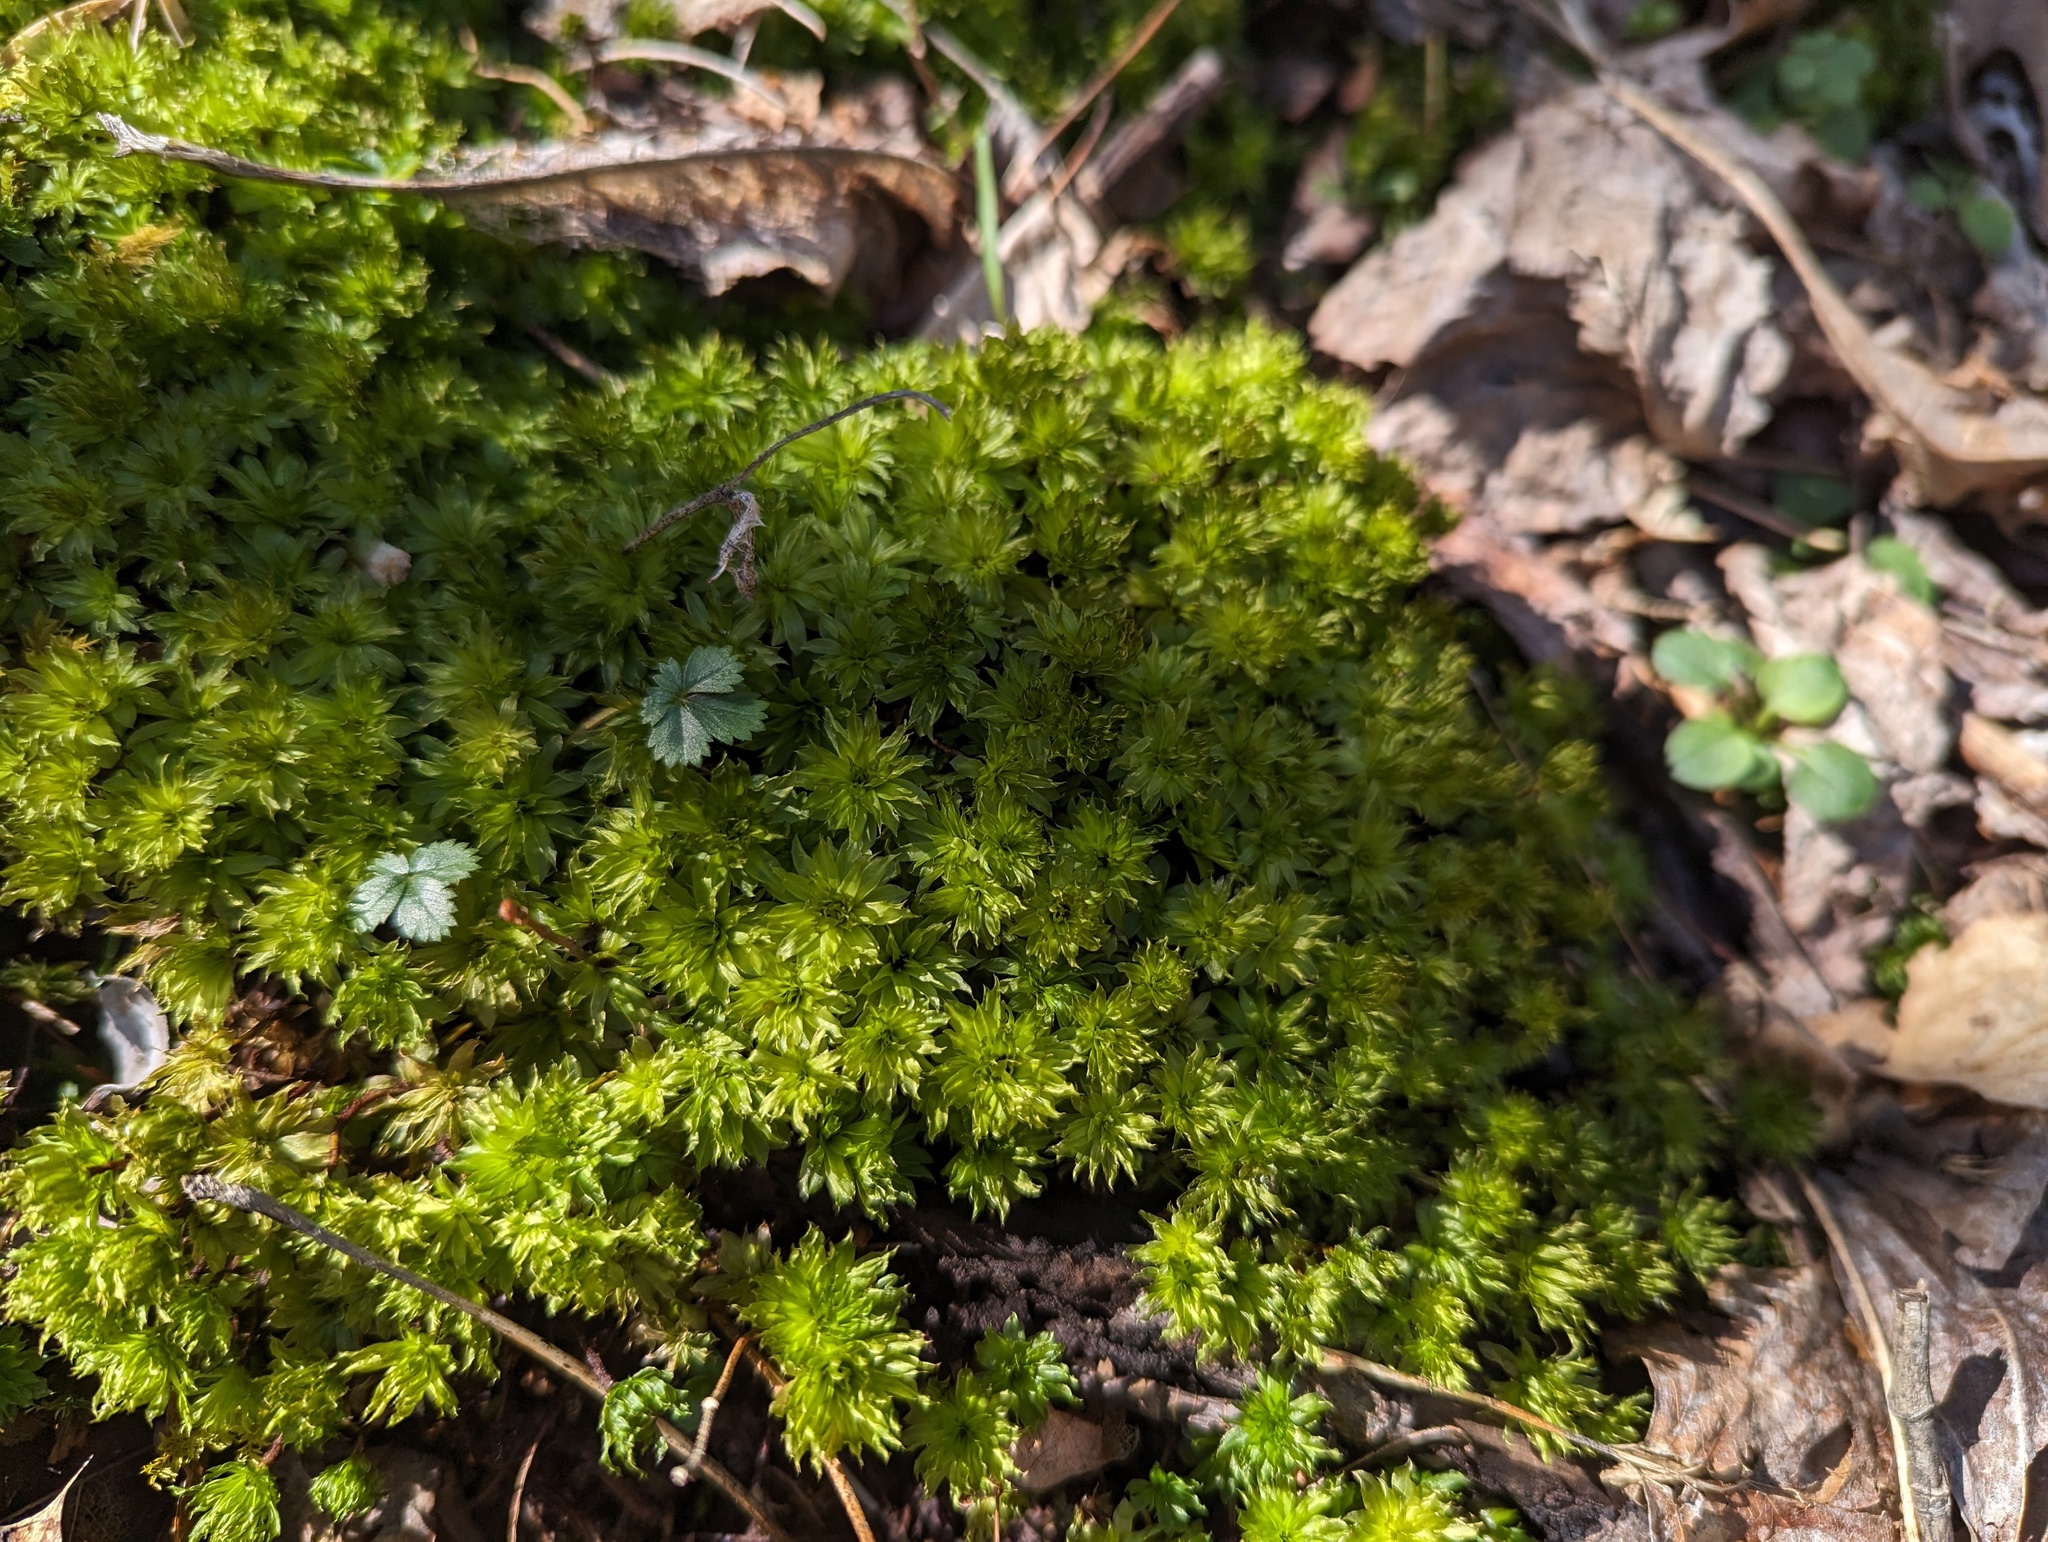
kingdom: Plantae
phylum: Bryophyta
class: Bryopsida
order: Bryales
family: Bryaceae
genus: Rhodobryum
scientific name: Rhodobryum ontariense
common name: Ontario rhodobryum moss
